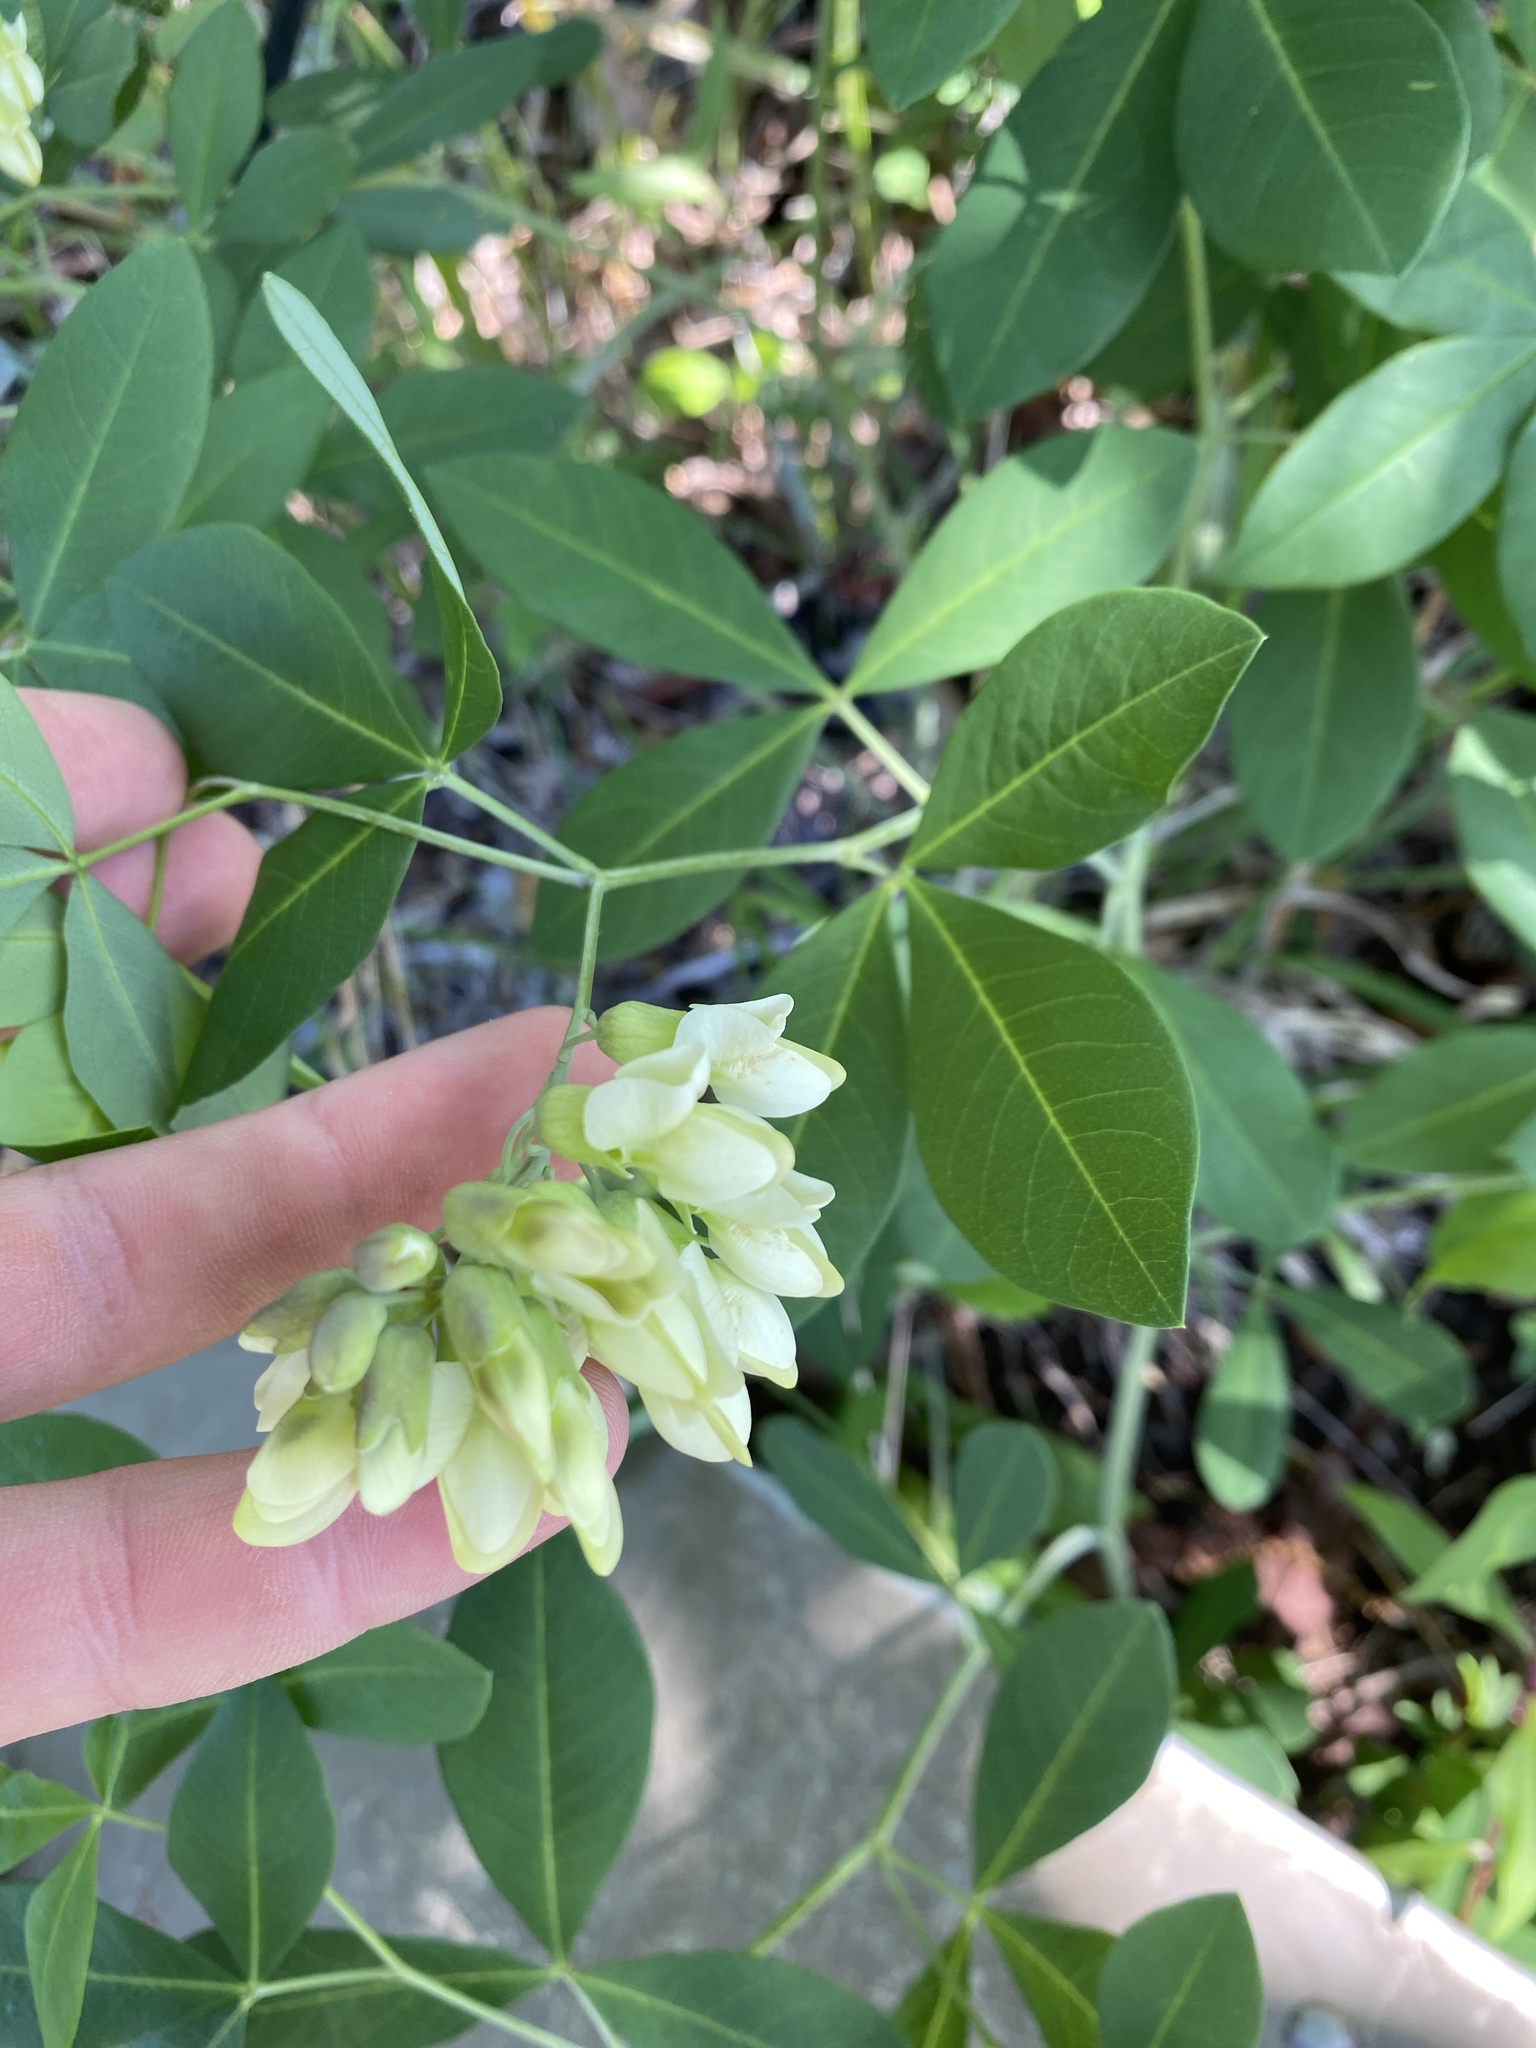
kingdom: Plantae
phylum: Tracheophyta
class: Magnoliopsida
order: Fabales
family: Fabaceae
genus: Baptisia
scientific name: Baptisia megacarpa
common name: Apalachicola wild indigo
